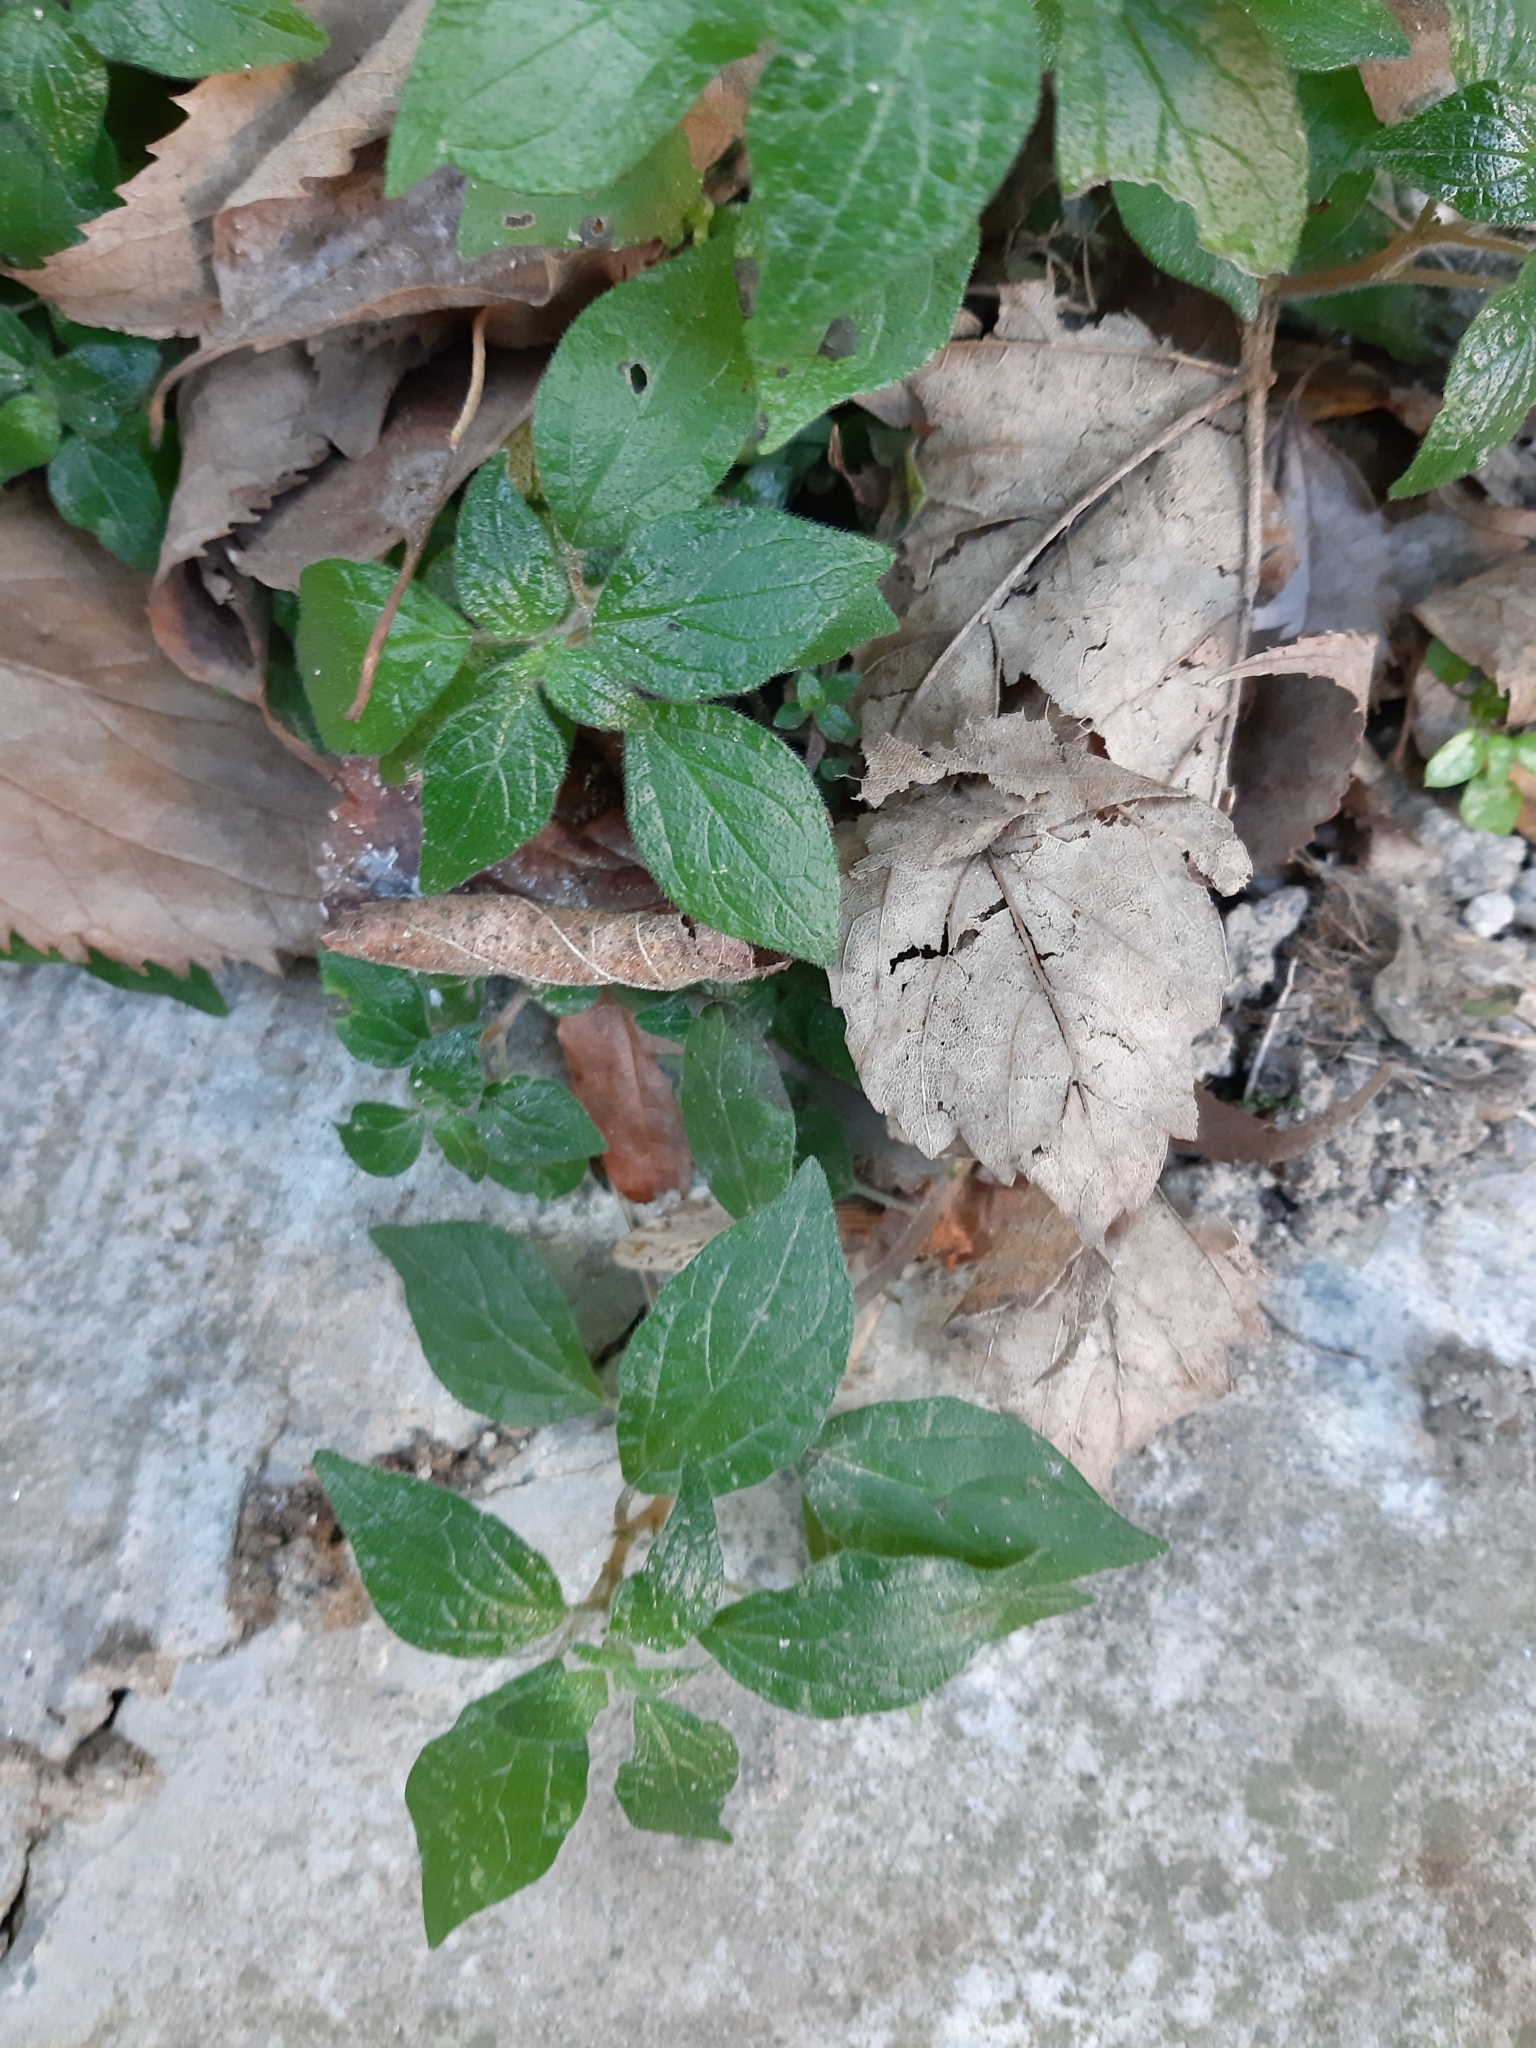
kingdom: Plantae
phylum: Tracheophyta
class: Magnoliopsida
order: Rosales
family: Urticaceae
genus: Parietaria
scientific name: Parietaria judaica
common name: Pellitory-of-the-wall
